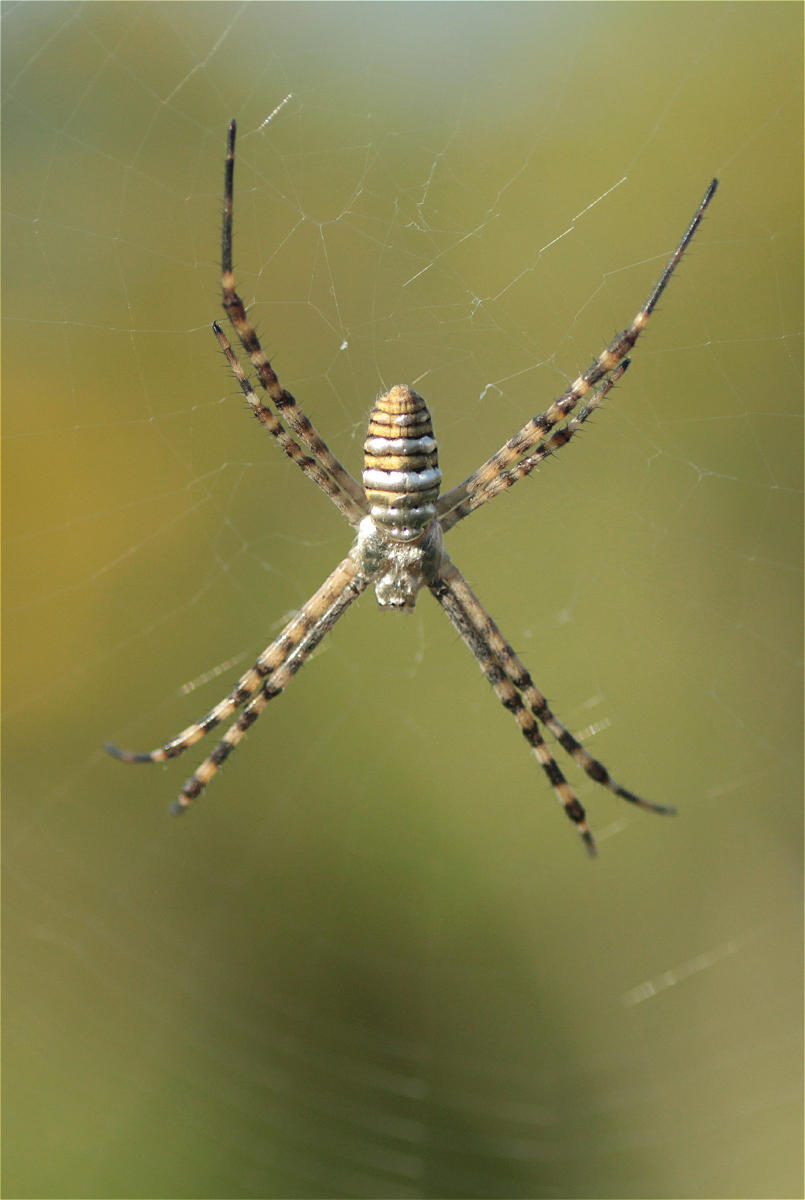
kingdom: Animalia
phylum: Arthropoda
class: Arachnida
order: Araneae
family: Araneidae
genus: Argiope
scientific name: Argiope trifasciata
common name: Banded garden spider
